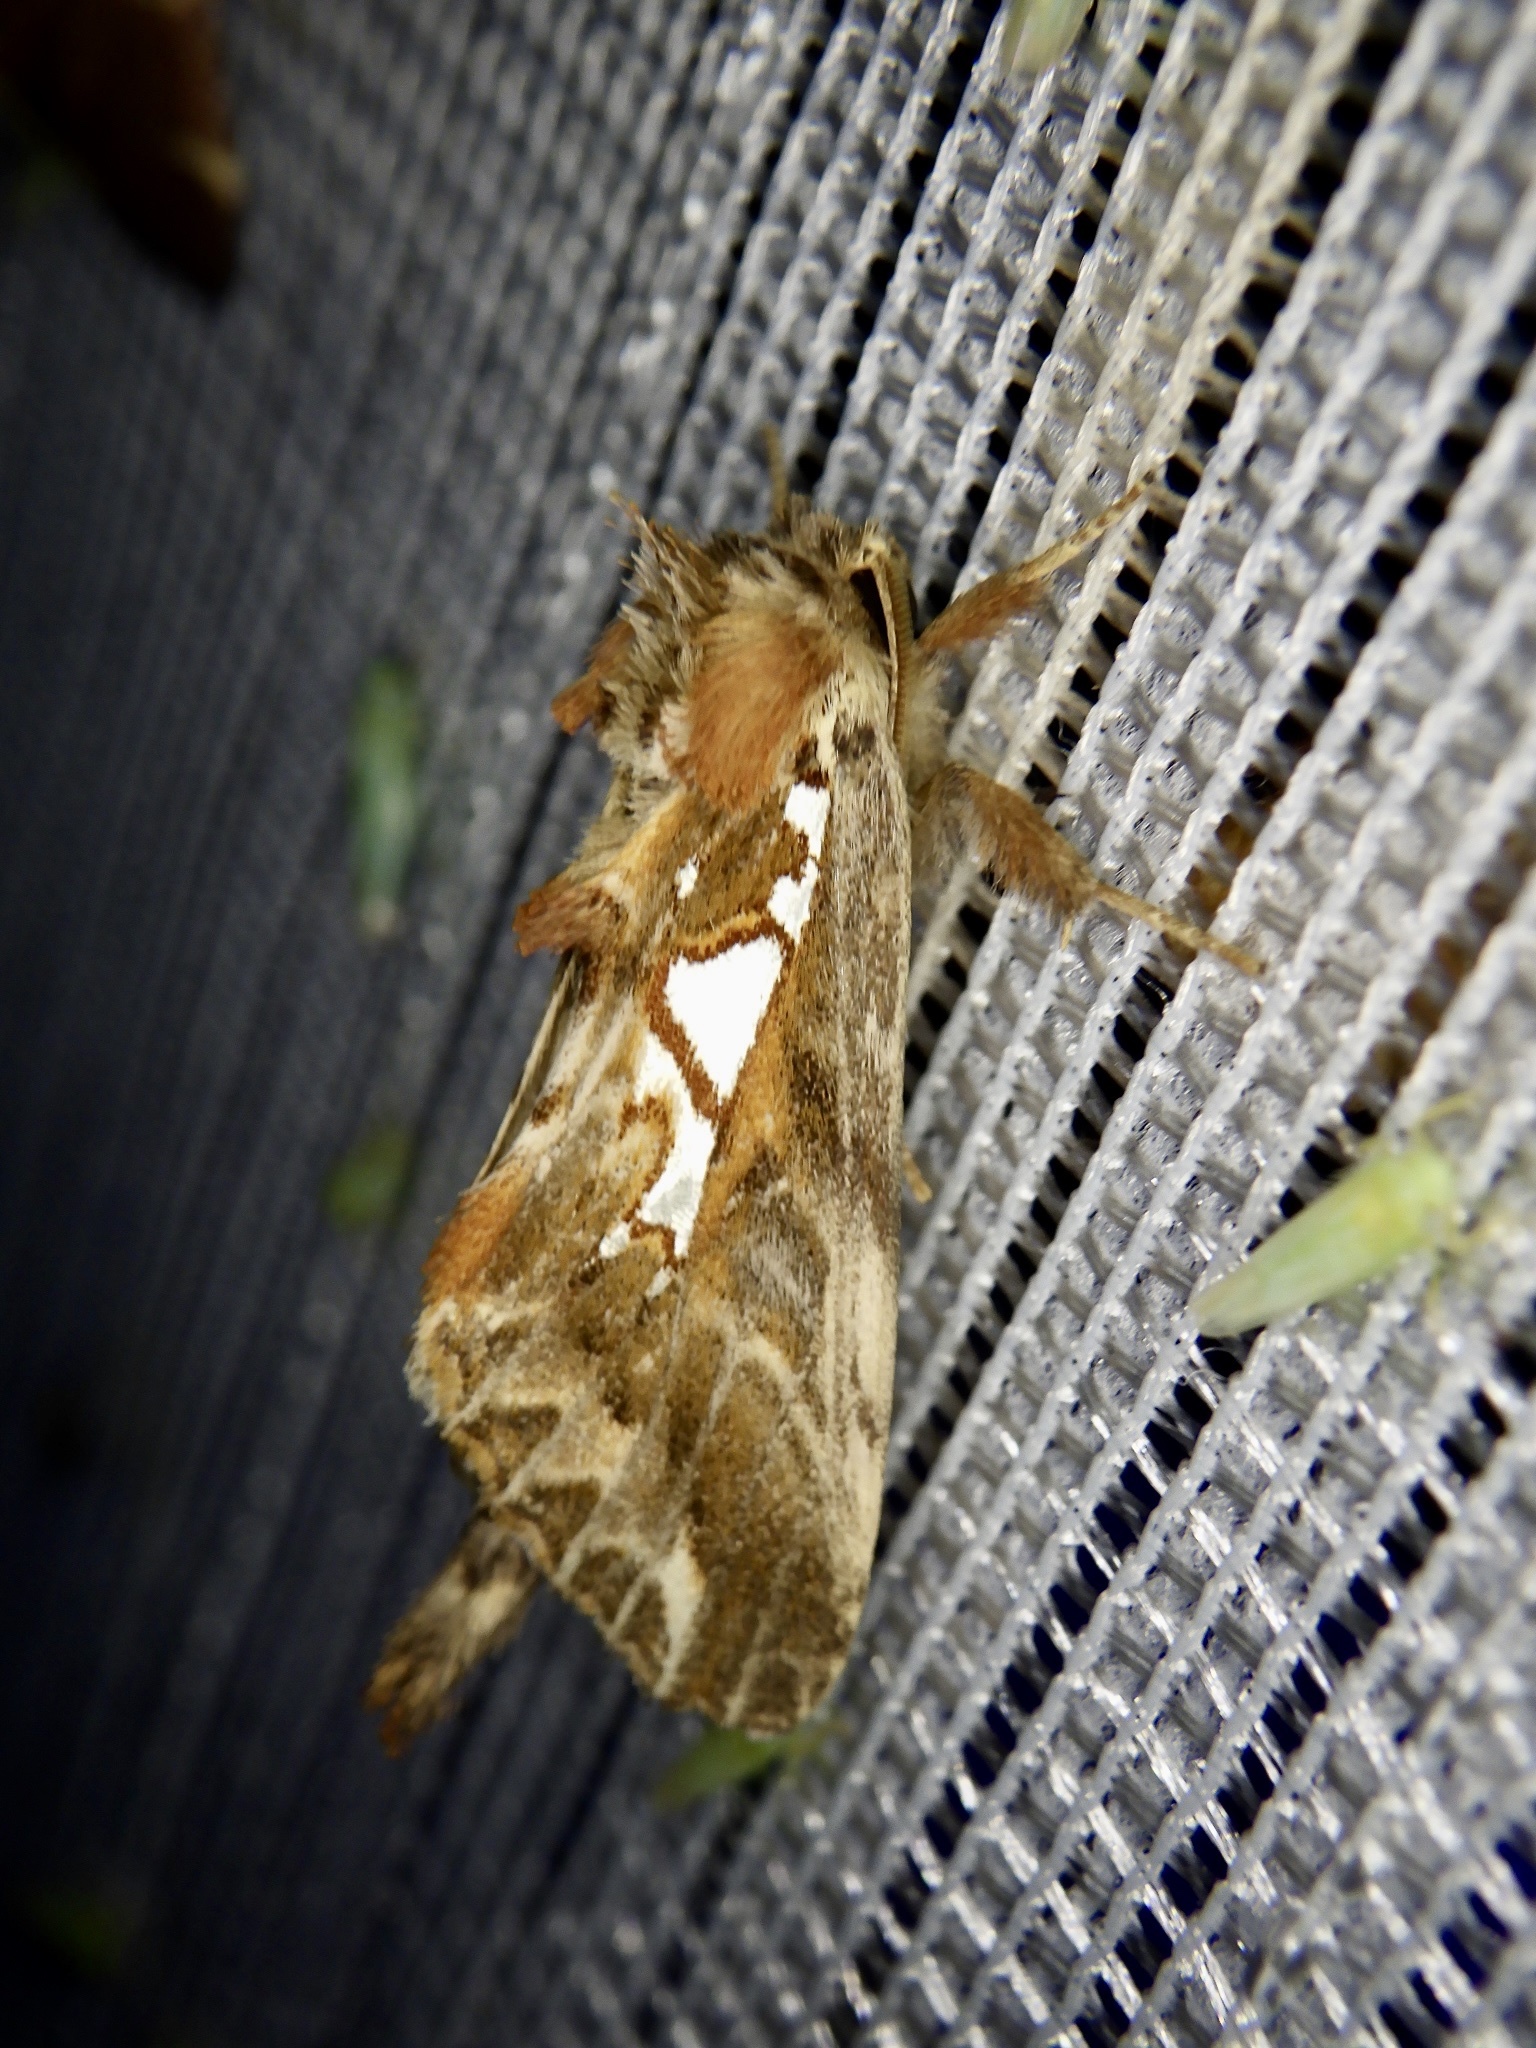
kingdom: Animalia
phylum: Arthropoda
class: Insecta
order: Lepidoptera
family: Notodontidae
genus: Spatalia
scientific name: Spatalia doerriesi
